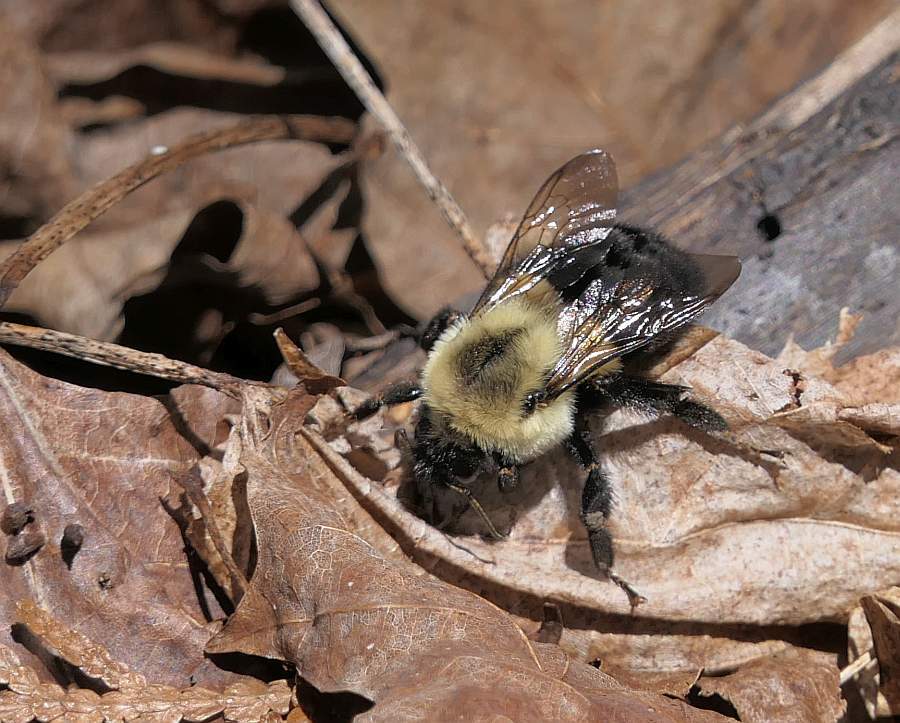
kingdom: Animalia
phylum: Arthropoda
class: Insecta
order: Hymenoptera
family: Apidae
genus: Bombus
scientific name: Bombus impatiens
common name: Common eastern bumble bee
